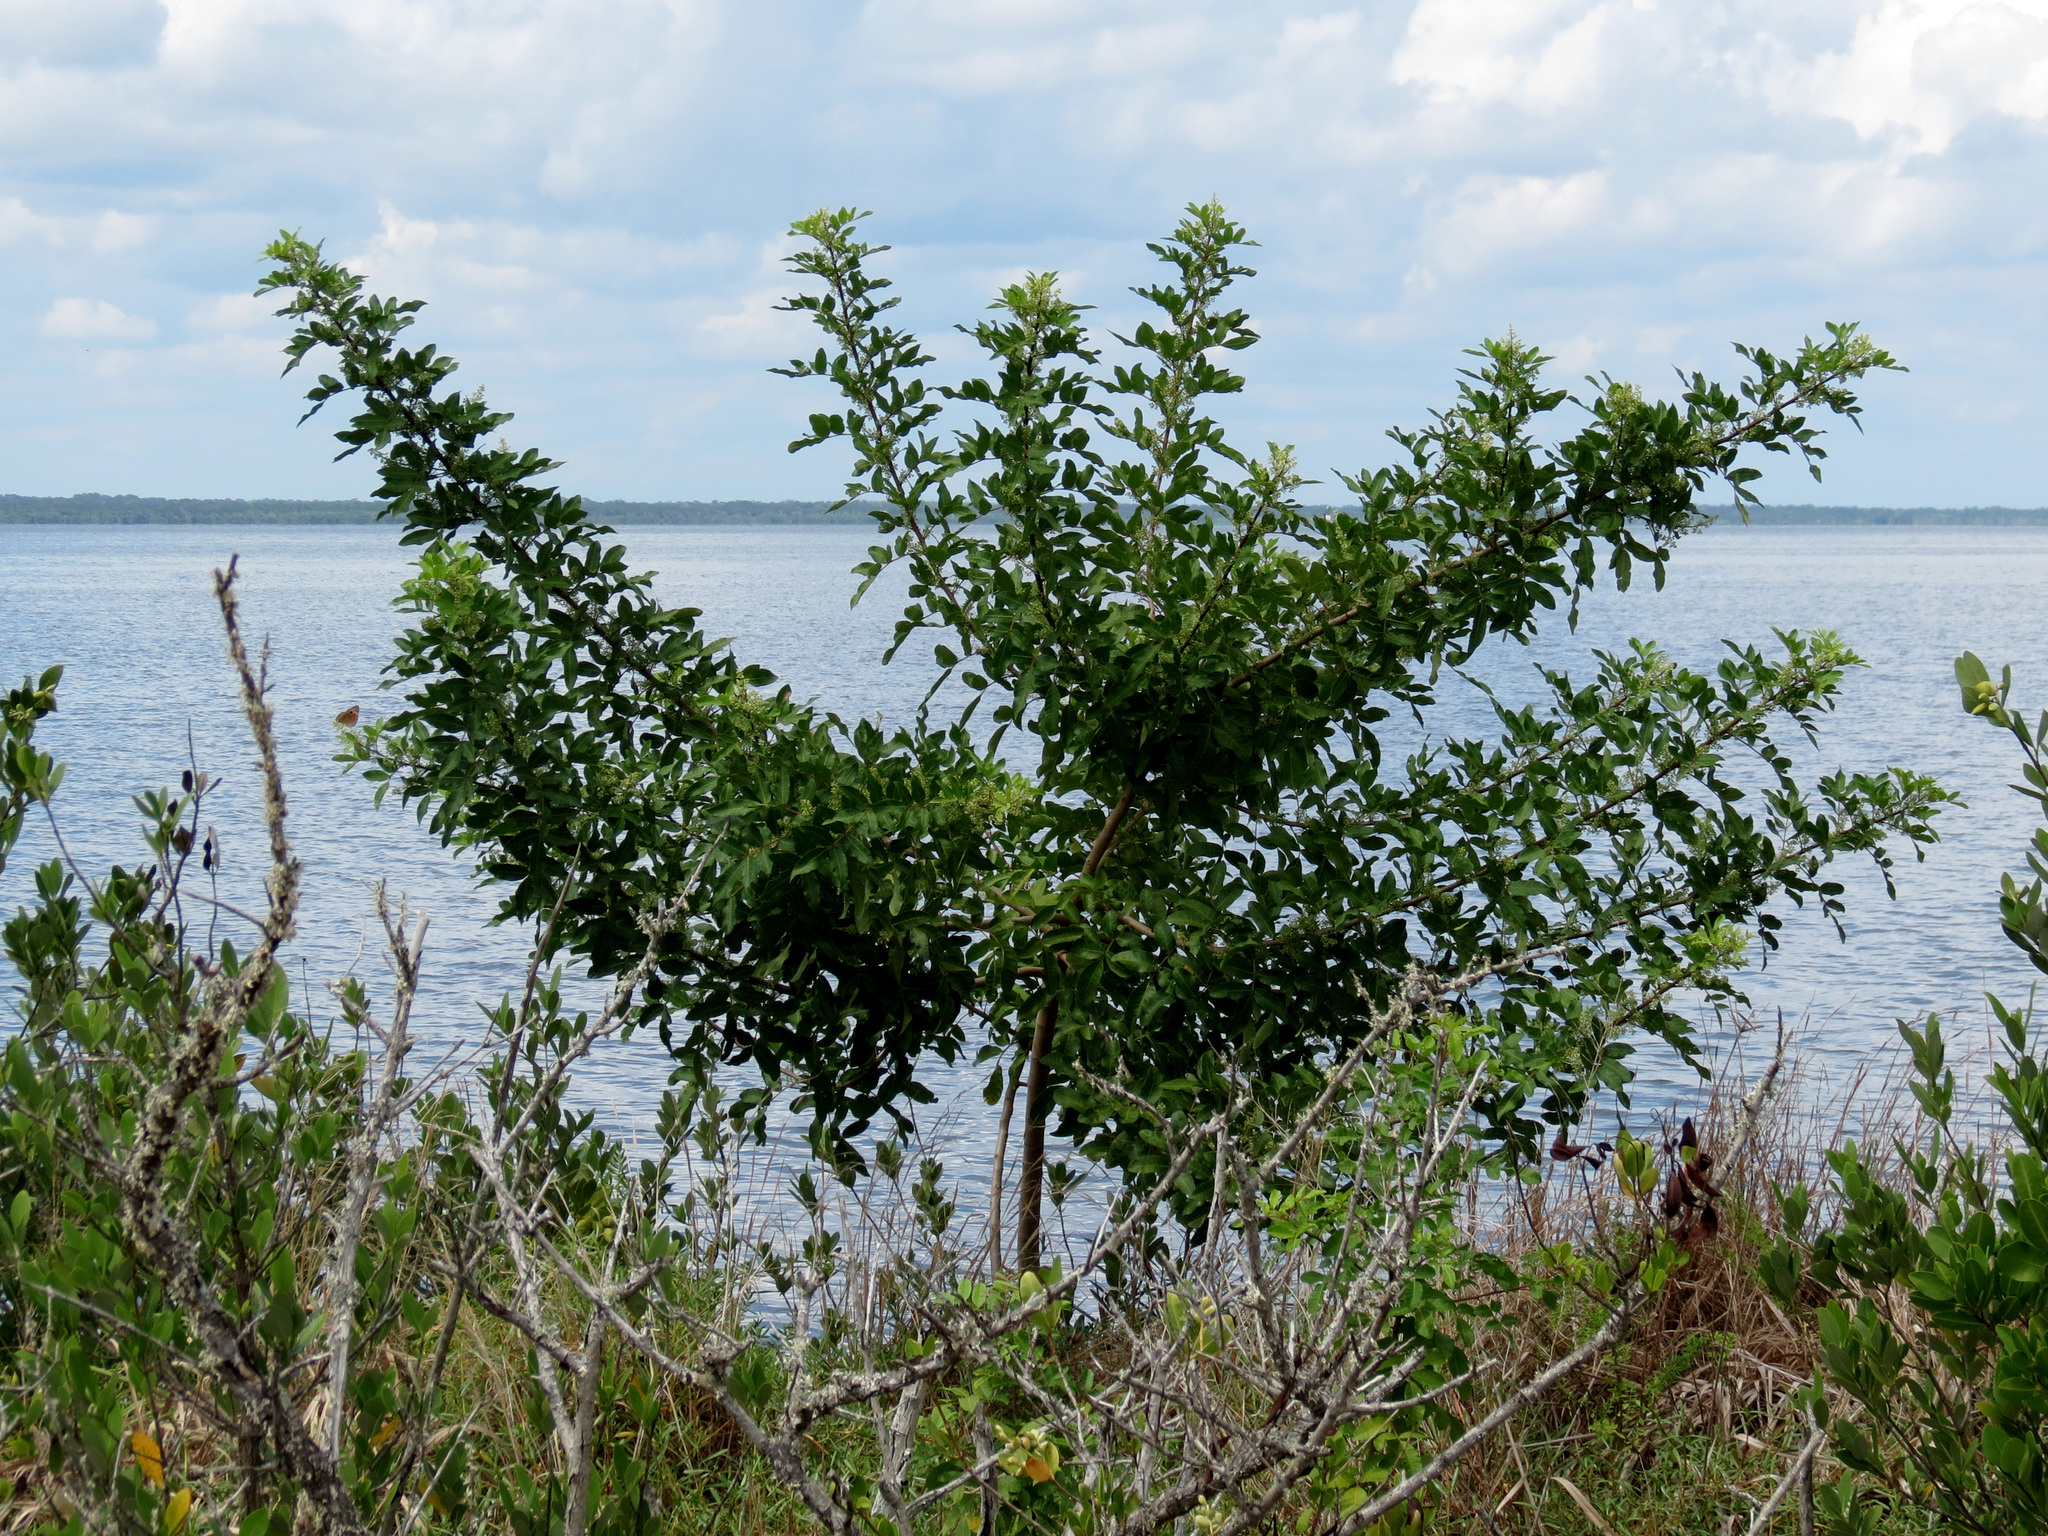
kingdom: Plantae
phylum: Tracheophyta
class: Magnoliopsida
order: Sapindales
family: Anacardiaceae
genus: Schinus
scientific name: Schinus terebinthifolia
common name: Brazilian peppertree
